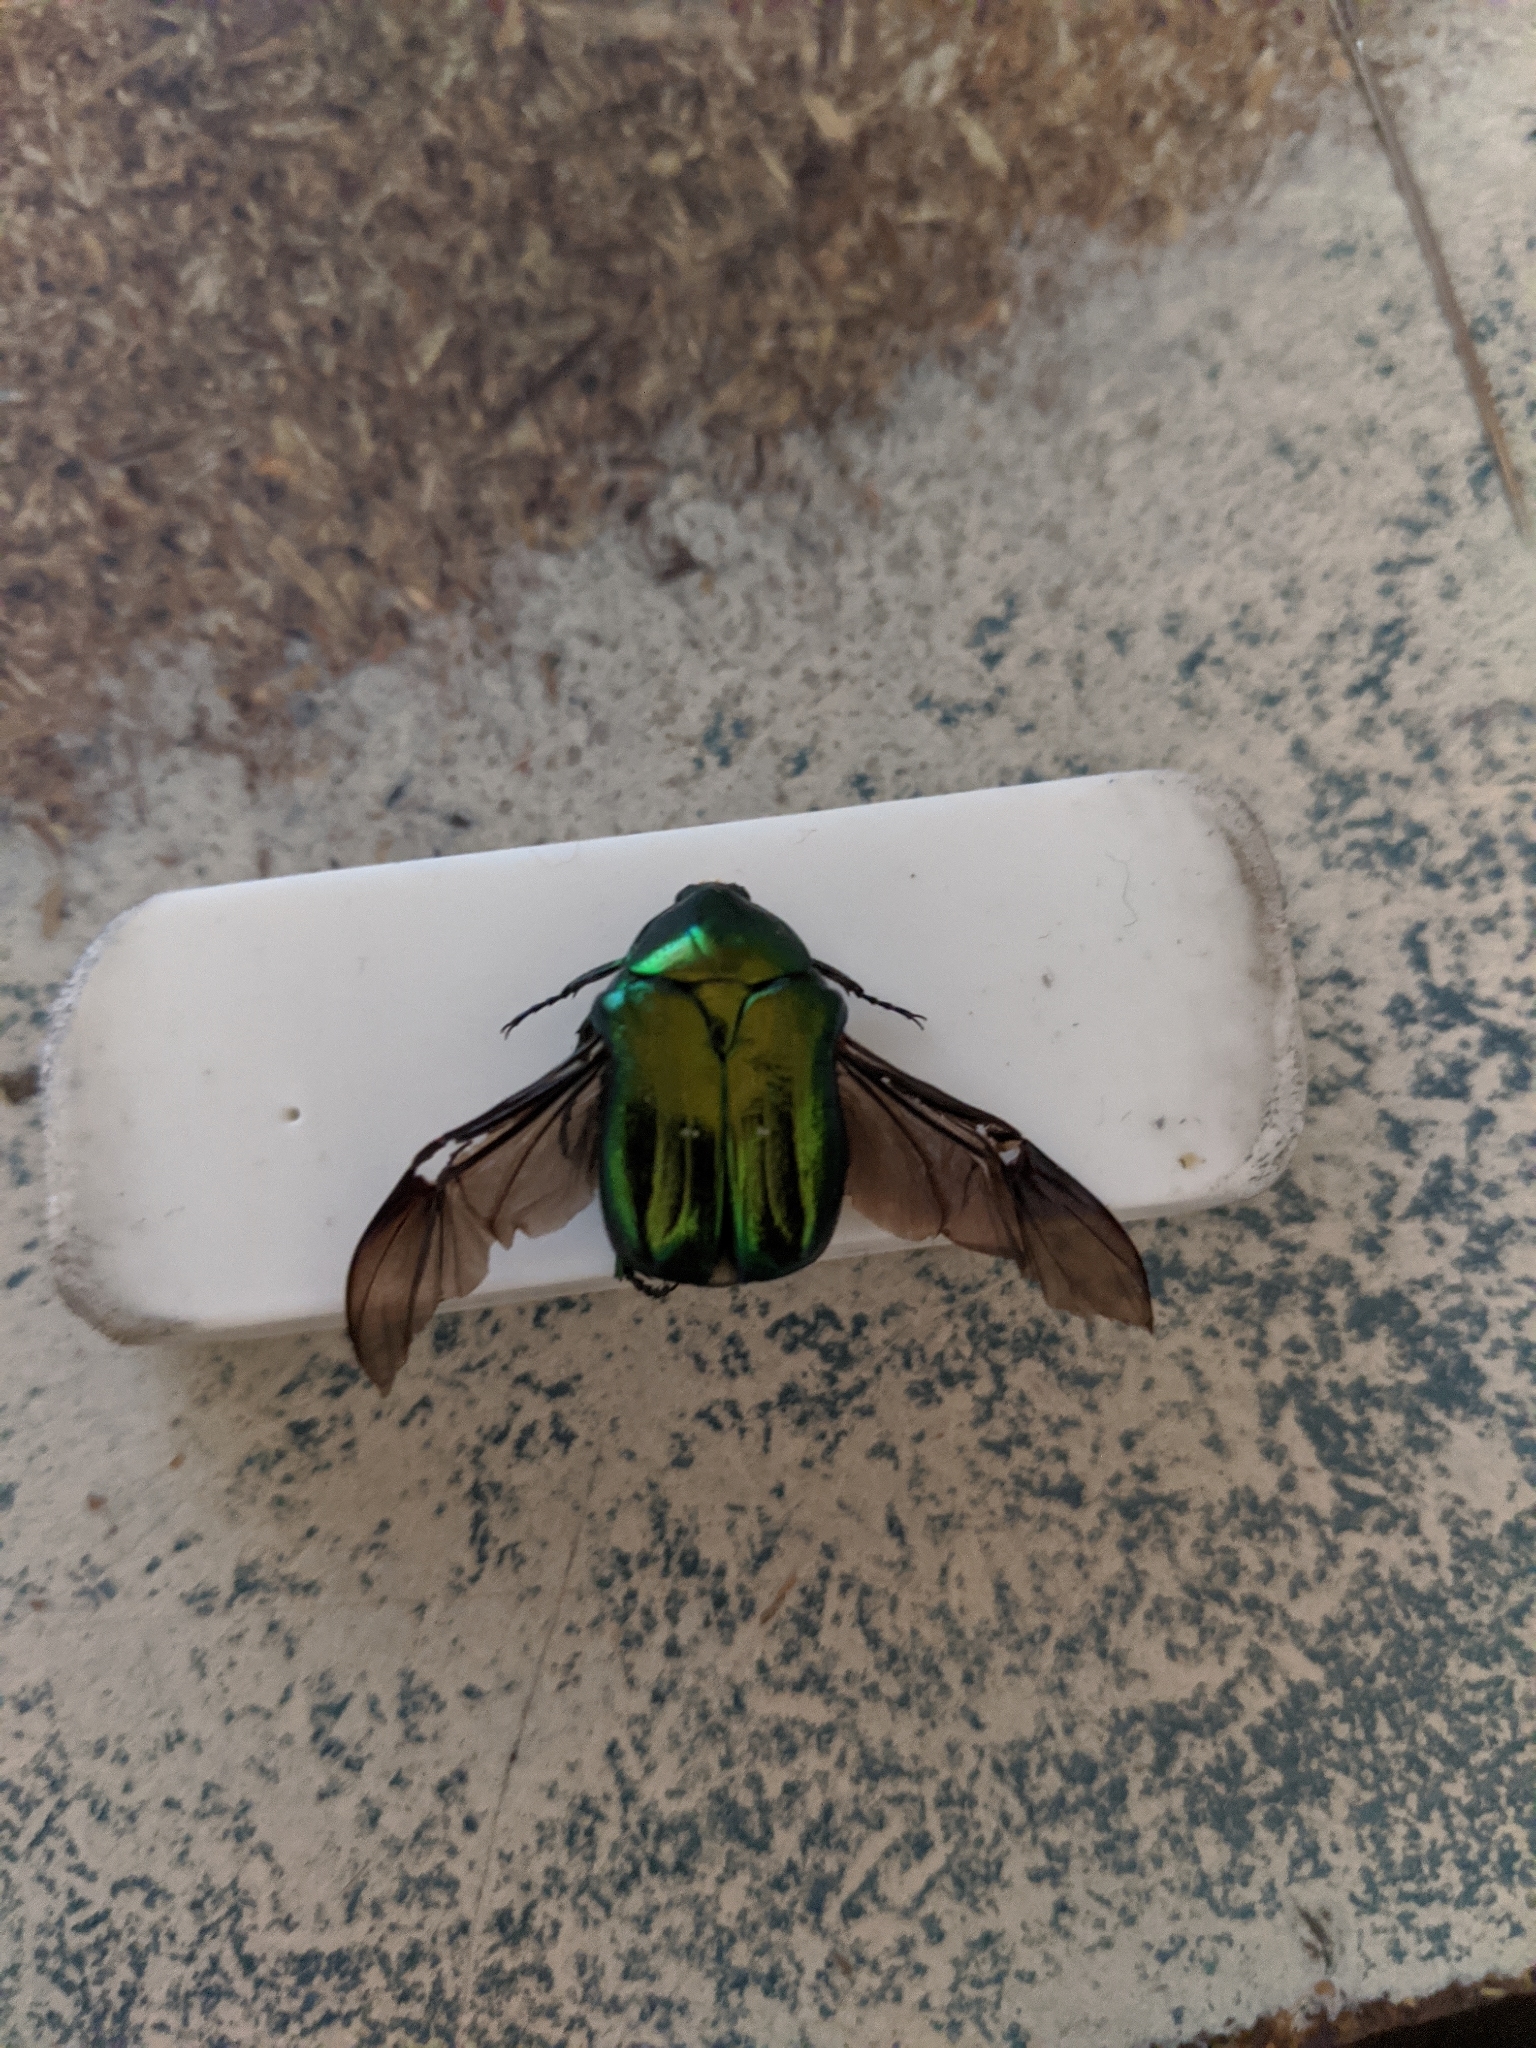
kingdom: Animalia
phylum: Arthropoda
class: Insecta
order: Coleoptera
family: Scarabaeidae
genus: Cetonia
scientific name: Cetonia aurata
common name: Rose chafer
